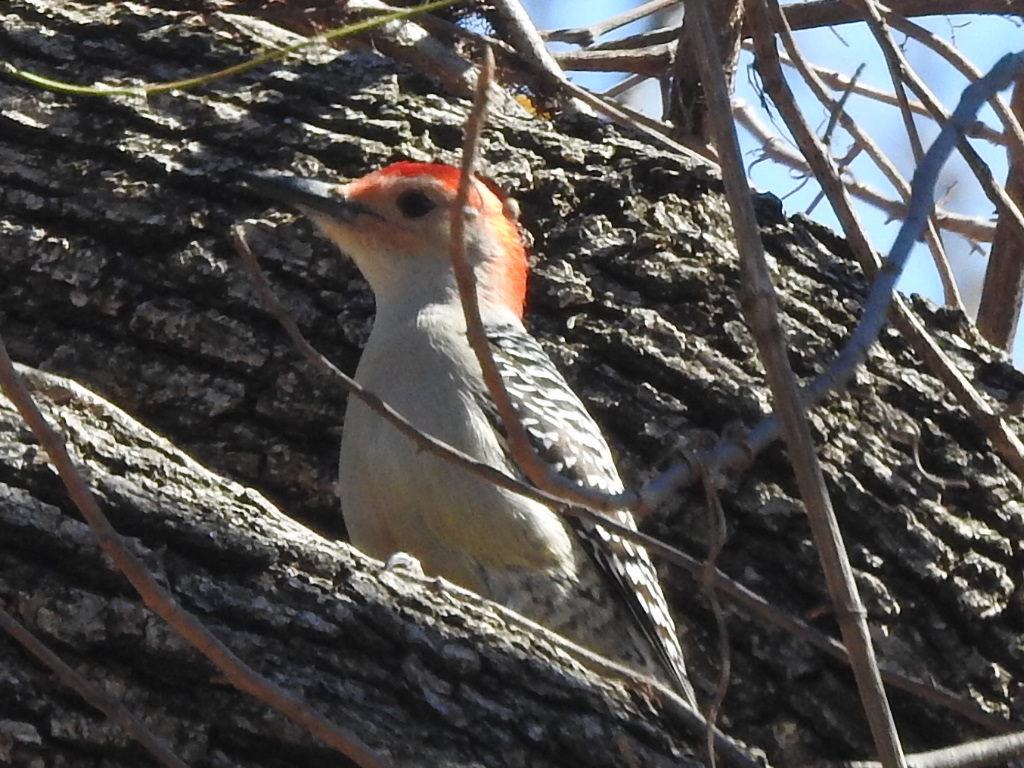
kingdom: Animalia
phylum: Chordata
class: Aves
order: Piciformes
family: Picidae
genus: Melanerpes
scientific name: Melanerpes carolinus
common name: Red-bellied woodpecker
